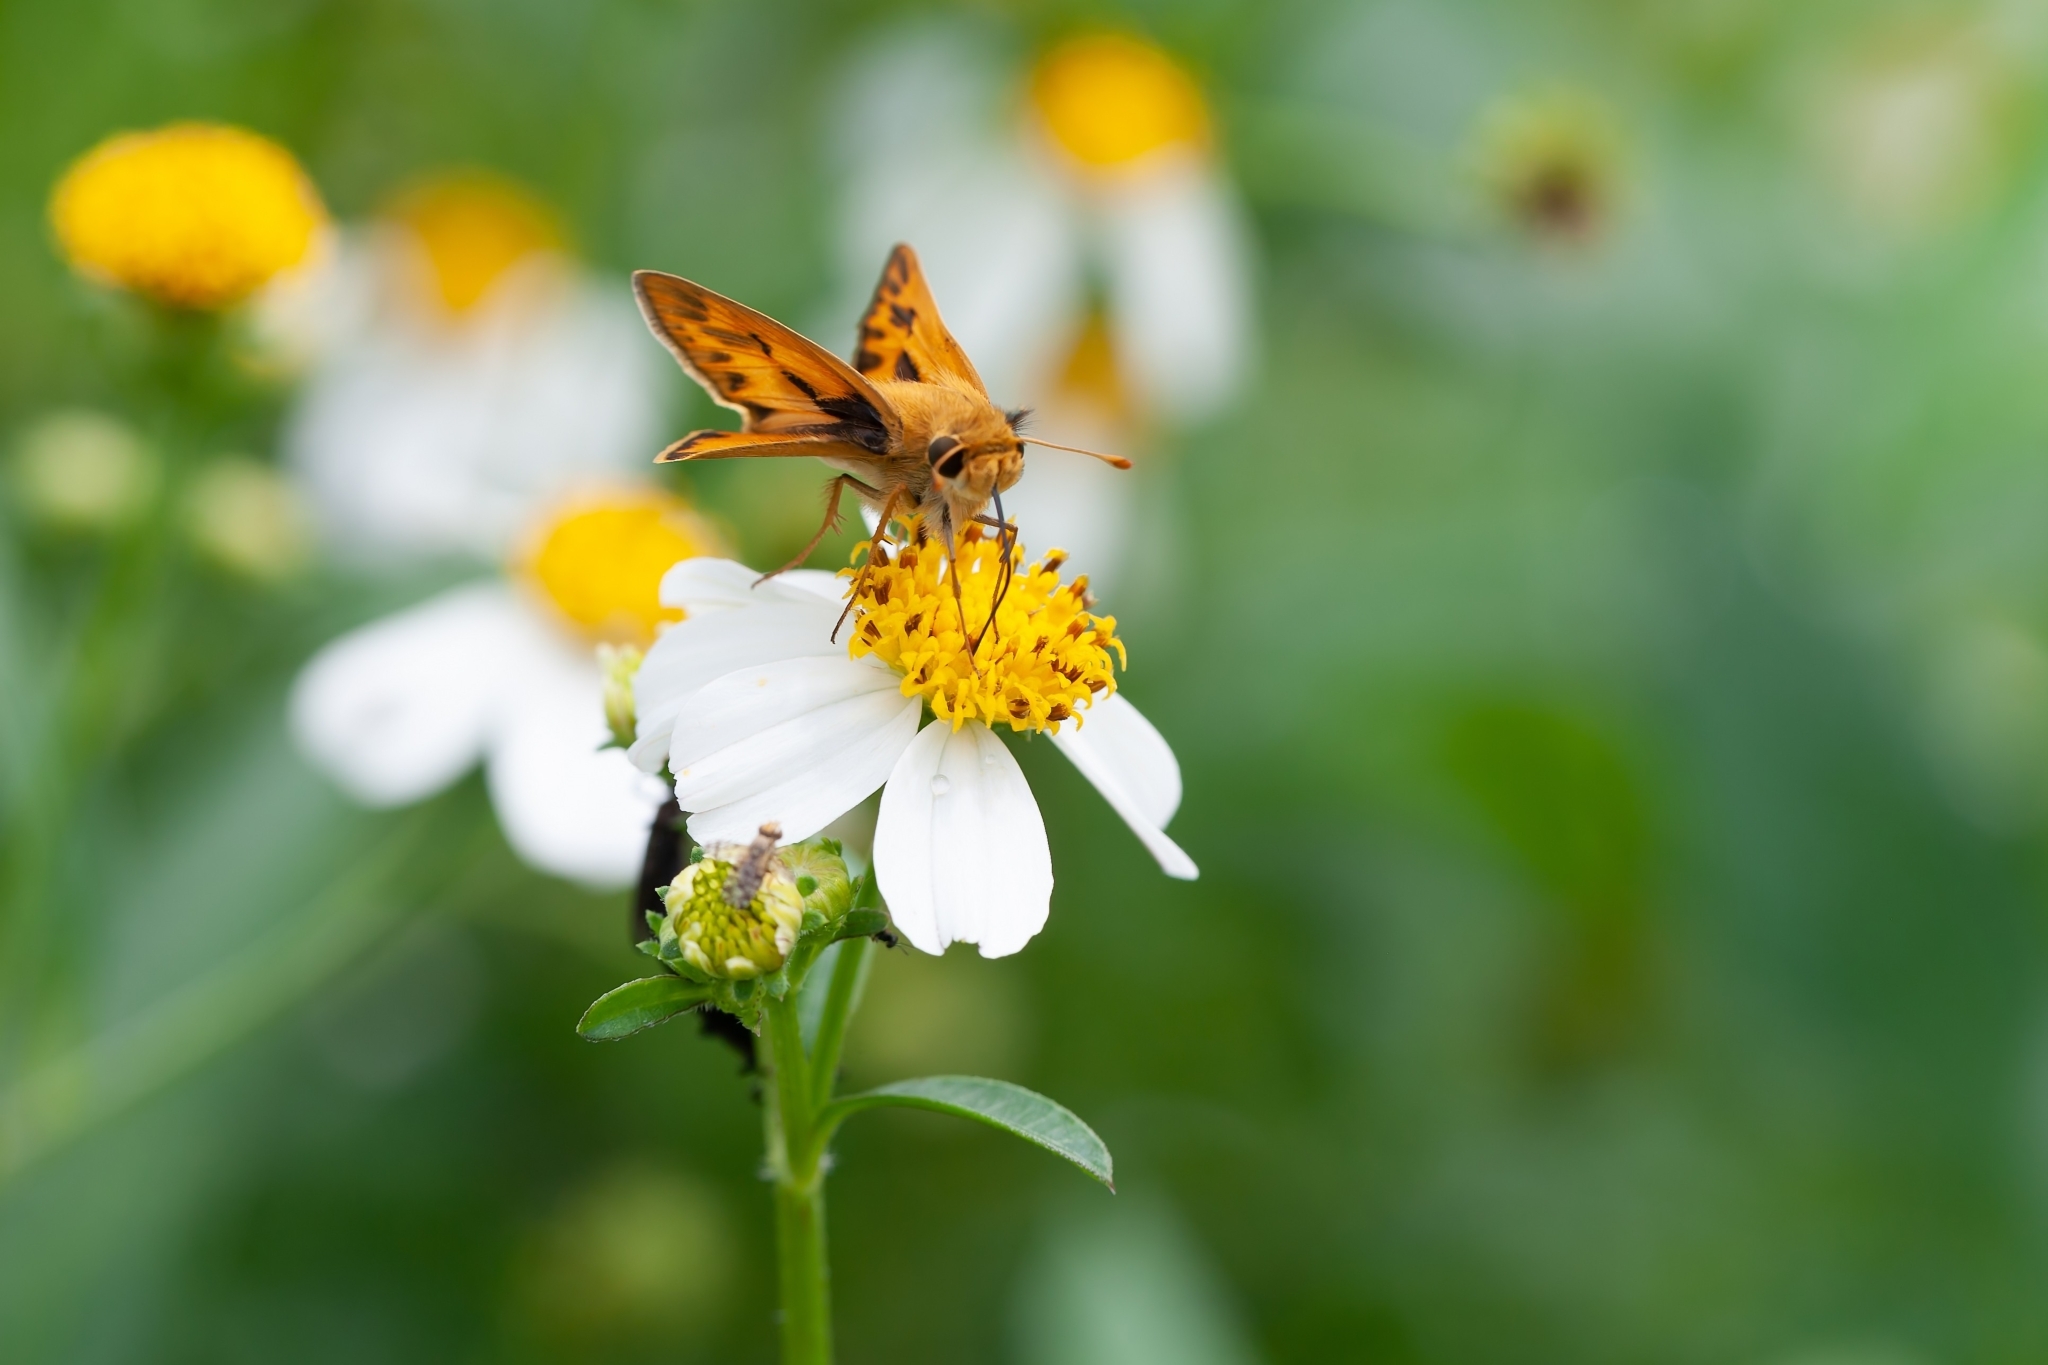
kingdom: Animalia
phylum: Arthropoda
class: Insecta
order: Lepidoptera
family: Hesperiidae
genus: Hylephila
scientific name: Hylephila phyleus
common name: Fiery skipper
